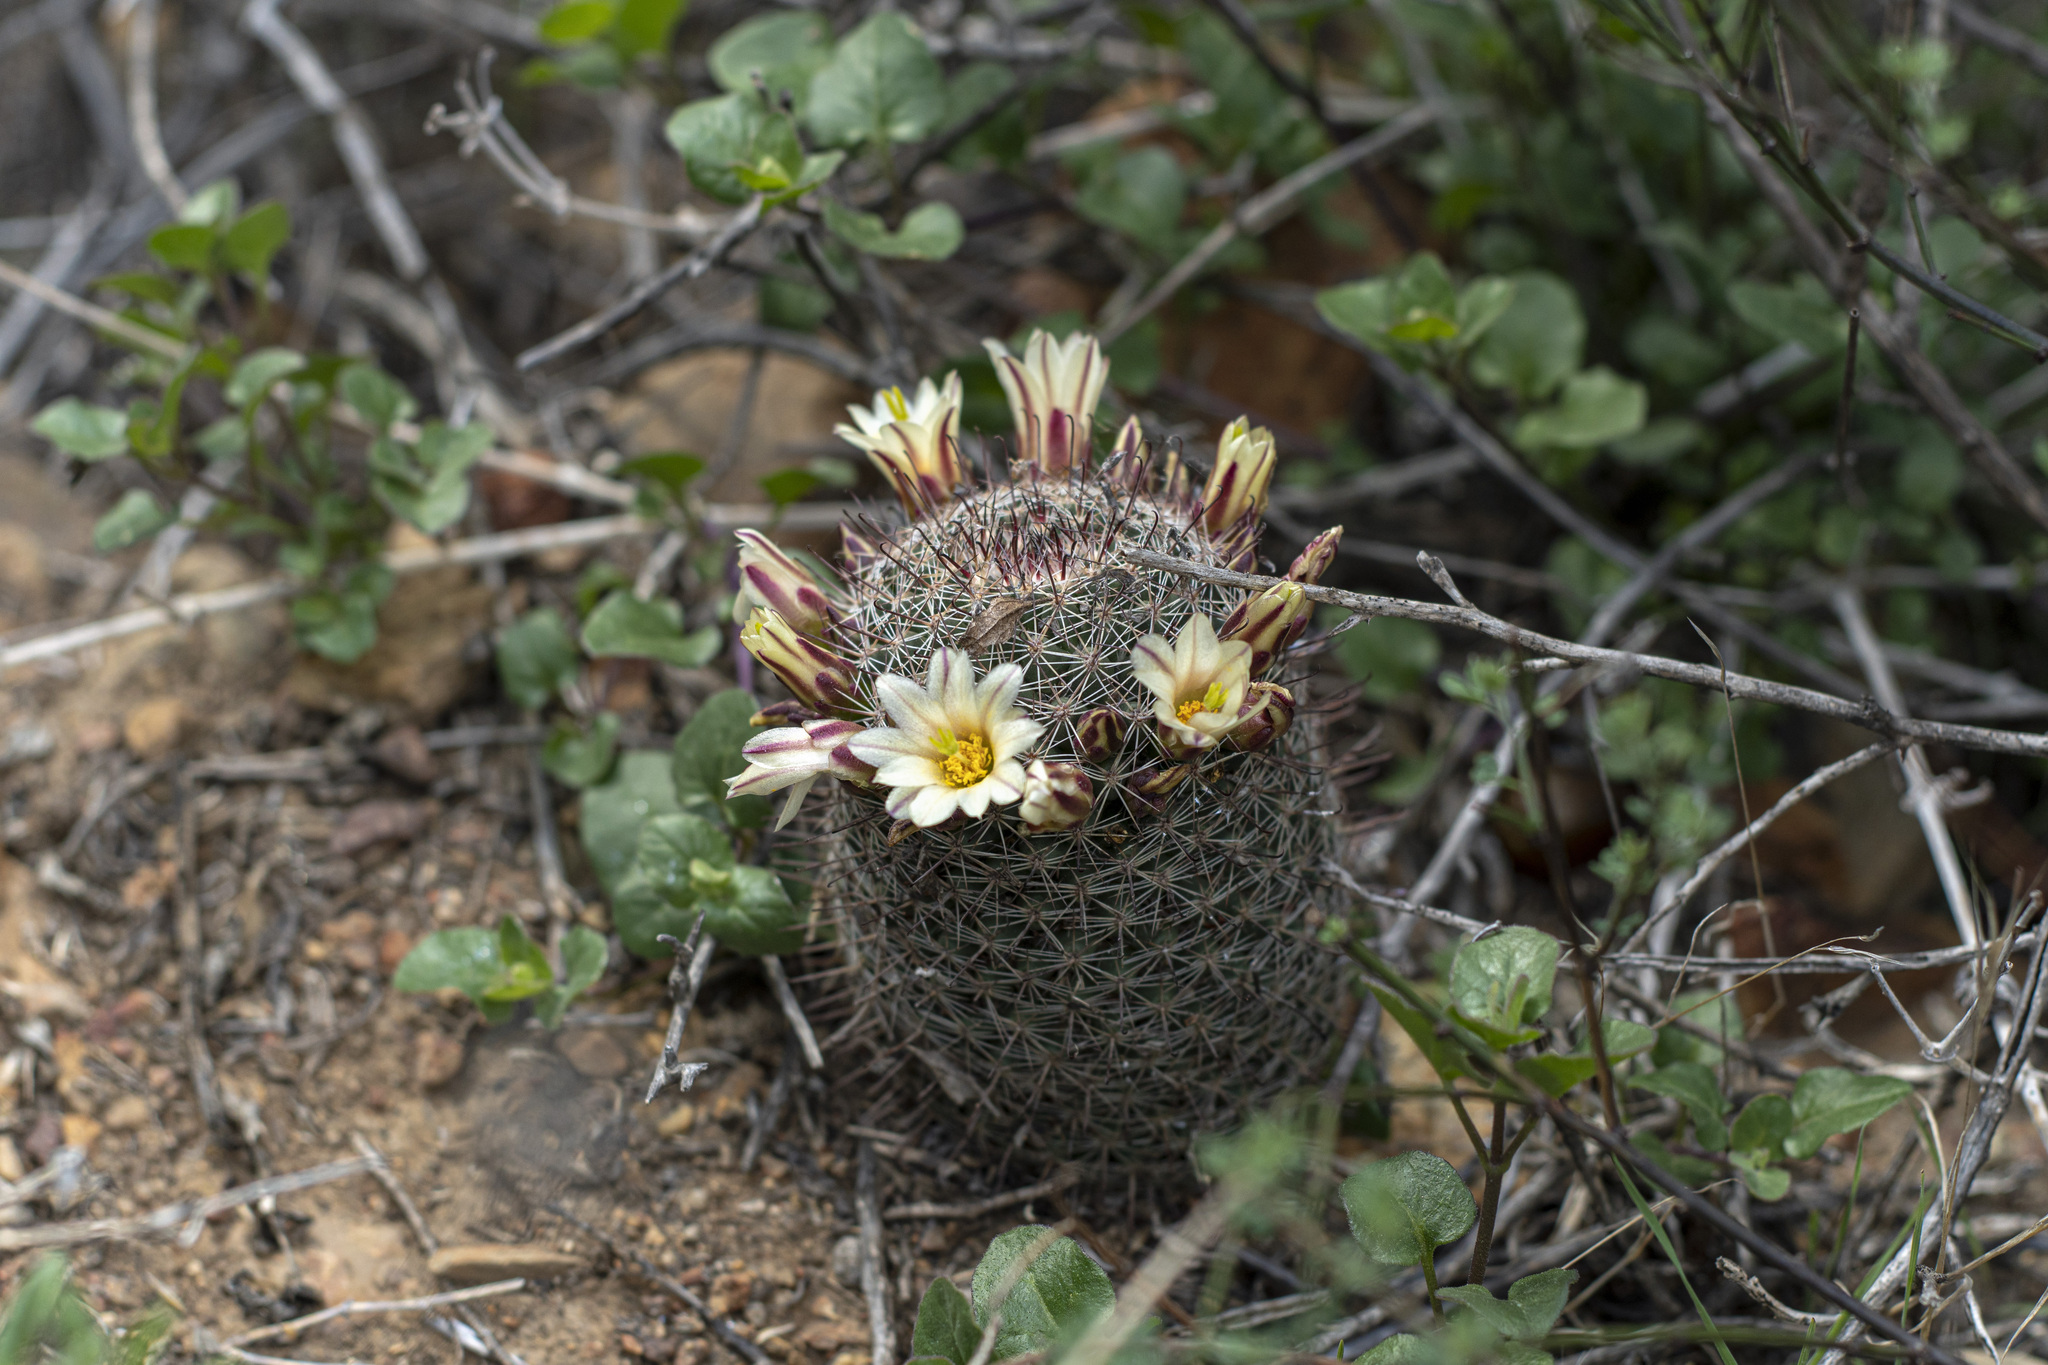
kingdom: Plantae
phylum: Tracheophyta
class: Magnoliopsida
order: Caryophyllales
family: Cactaceae
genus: Cochemiea
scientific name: Cochemiea dioica
